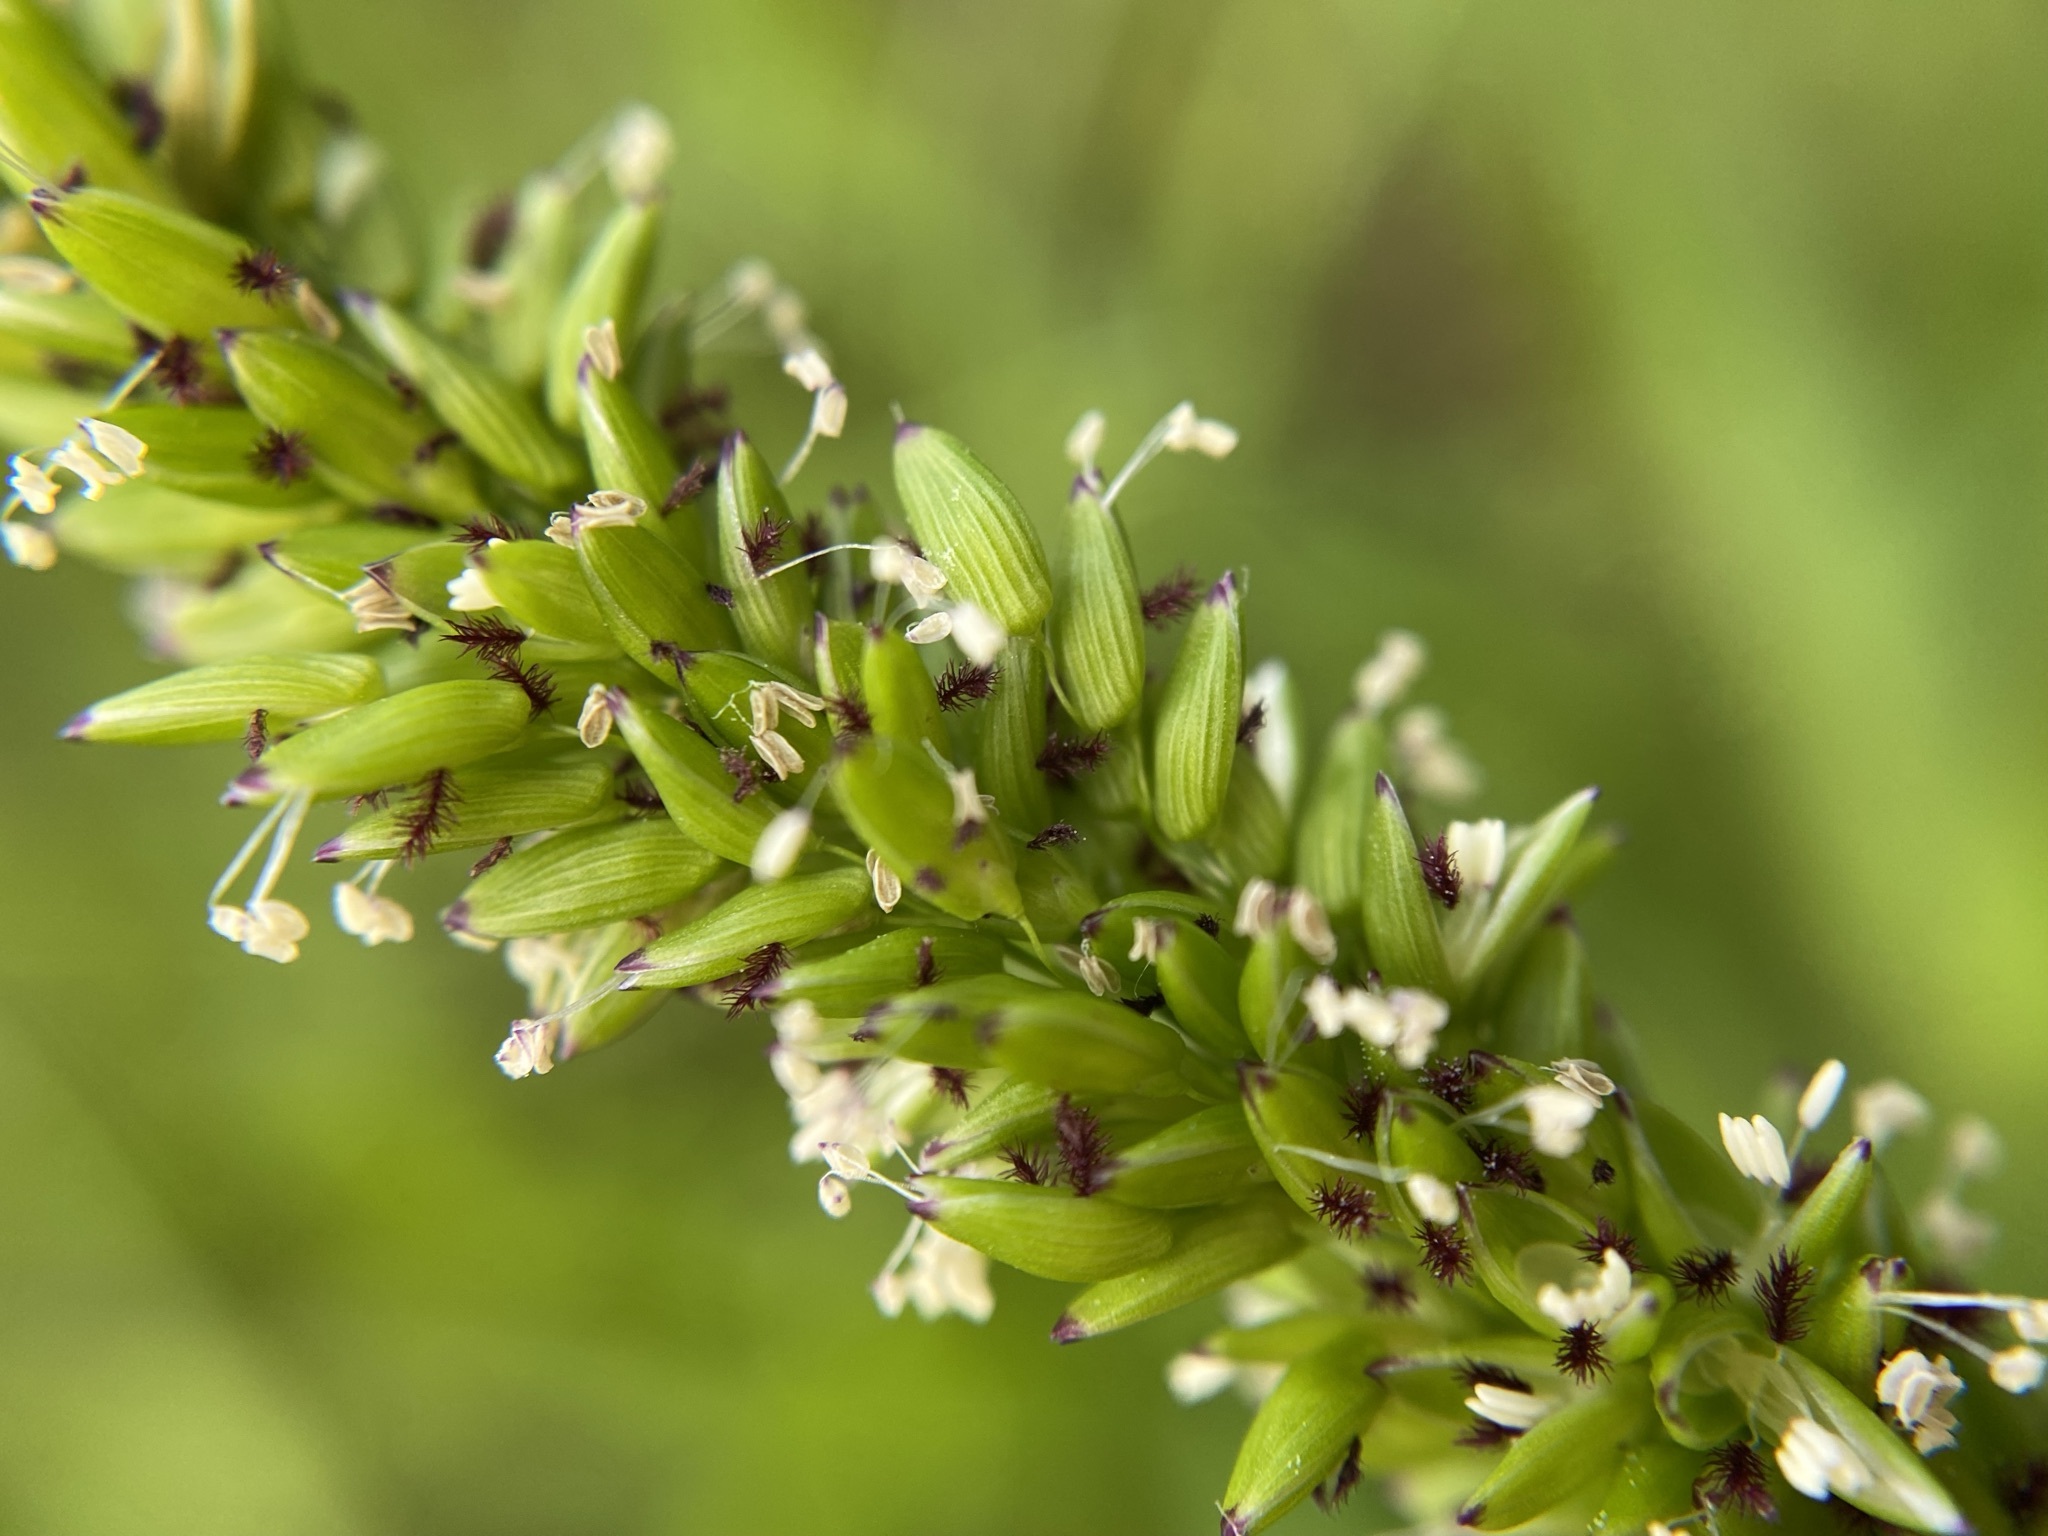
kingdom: Plantae
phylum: Tracheophyta
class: Liliopsida
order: Poales
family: Poaceae
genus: Sacciolepis
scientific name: Sacciolepis striata
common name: American cupscale
